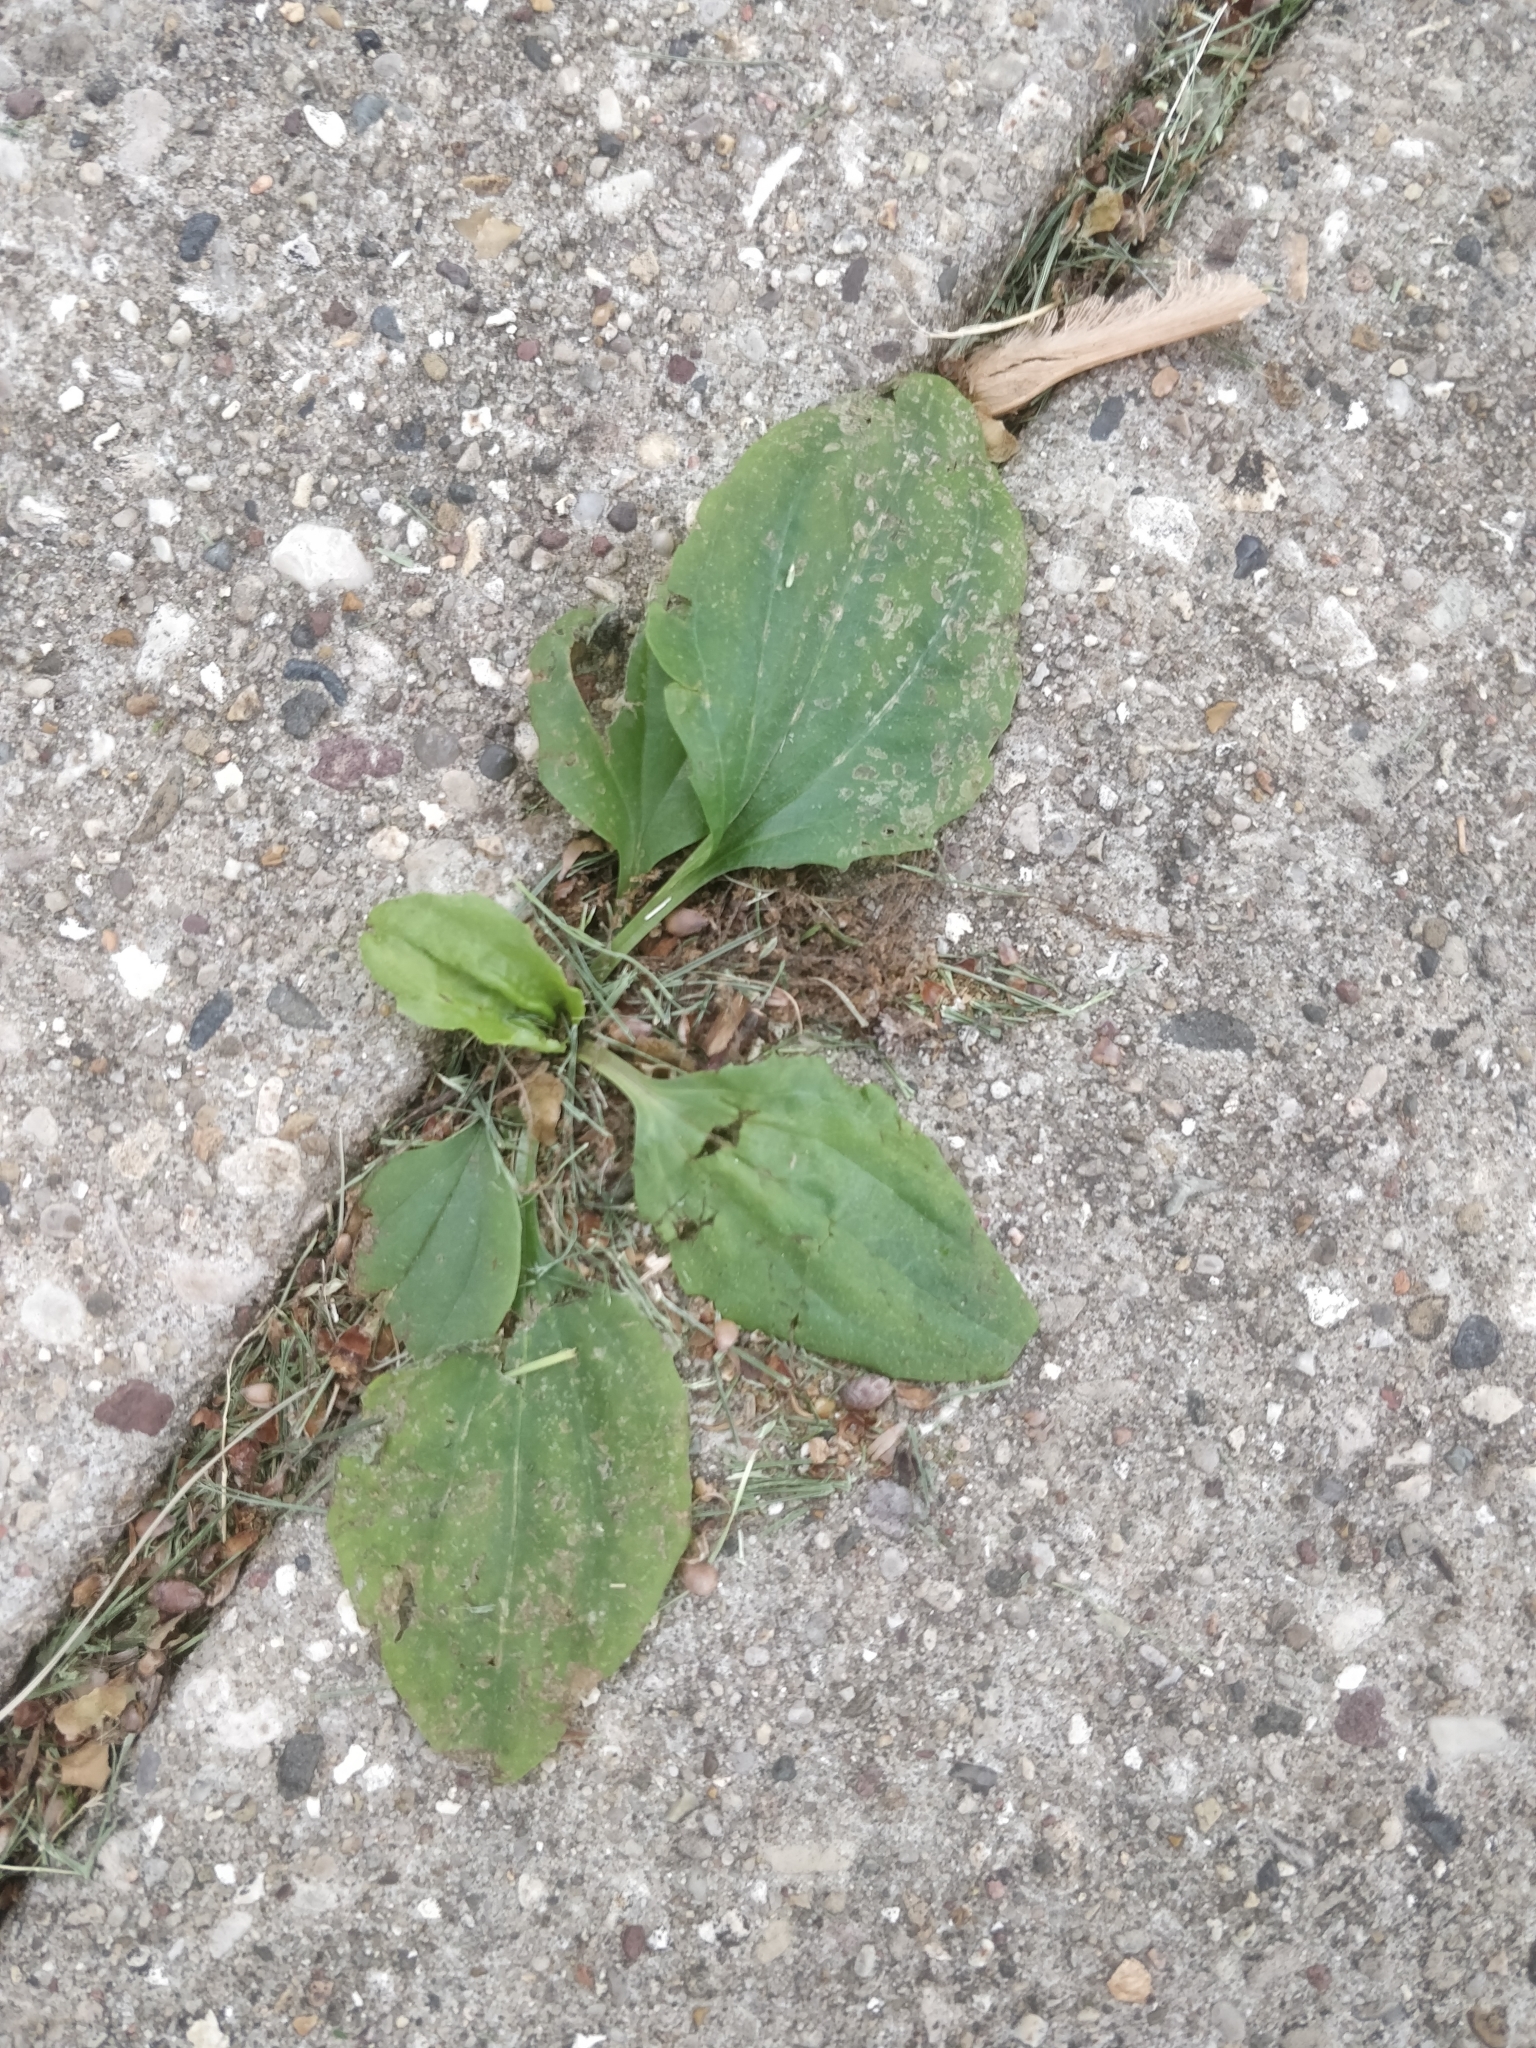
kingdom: Plantae
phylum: Tracheophyta
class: Magnoliopsida
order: Lamiales
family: Plantaginaceae
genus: Plantago
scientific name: Plantago major
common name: Common plantain
